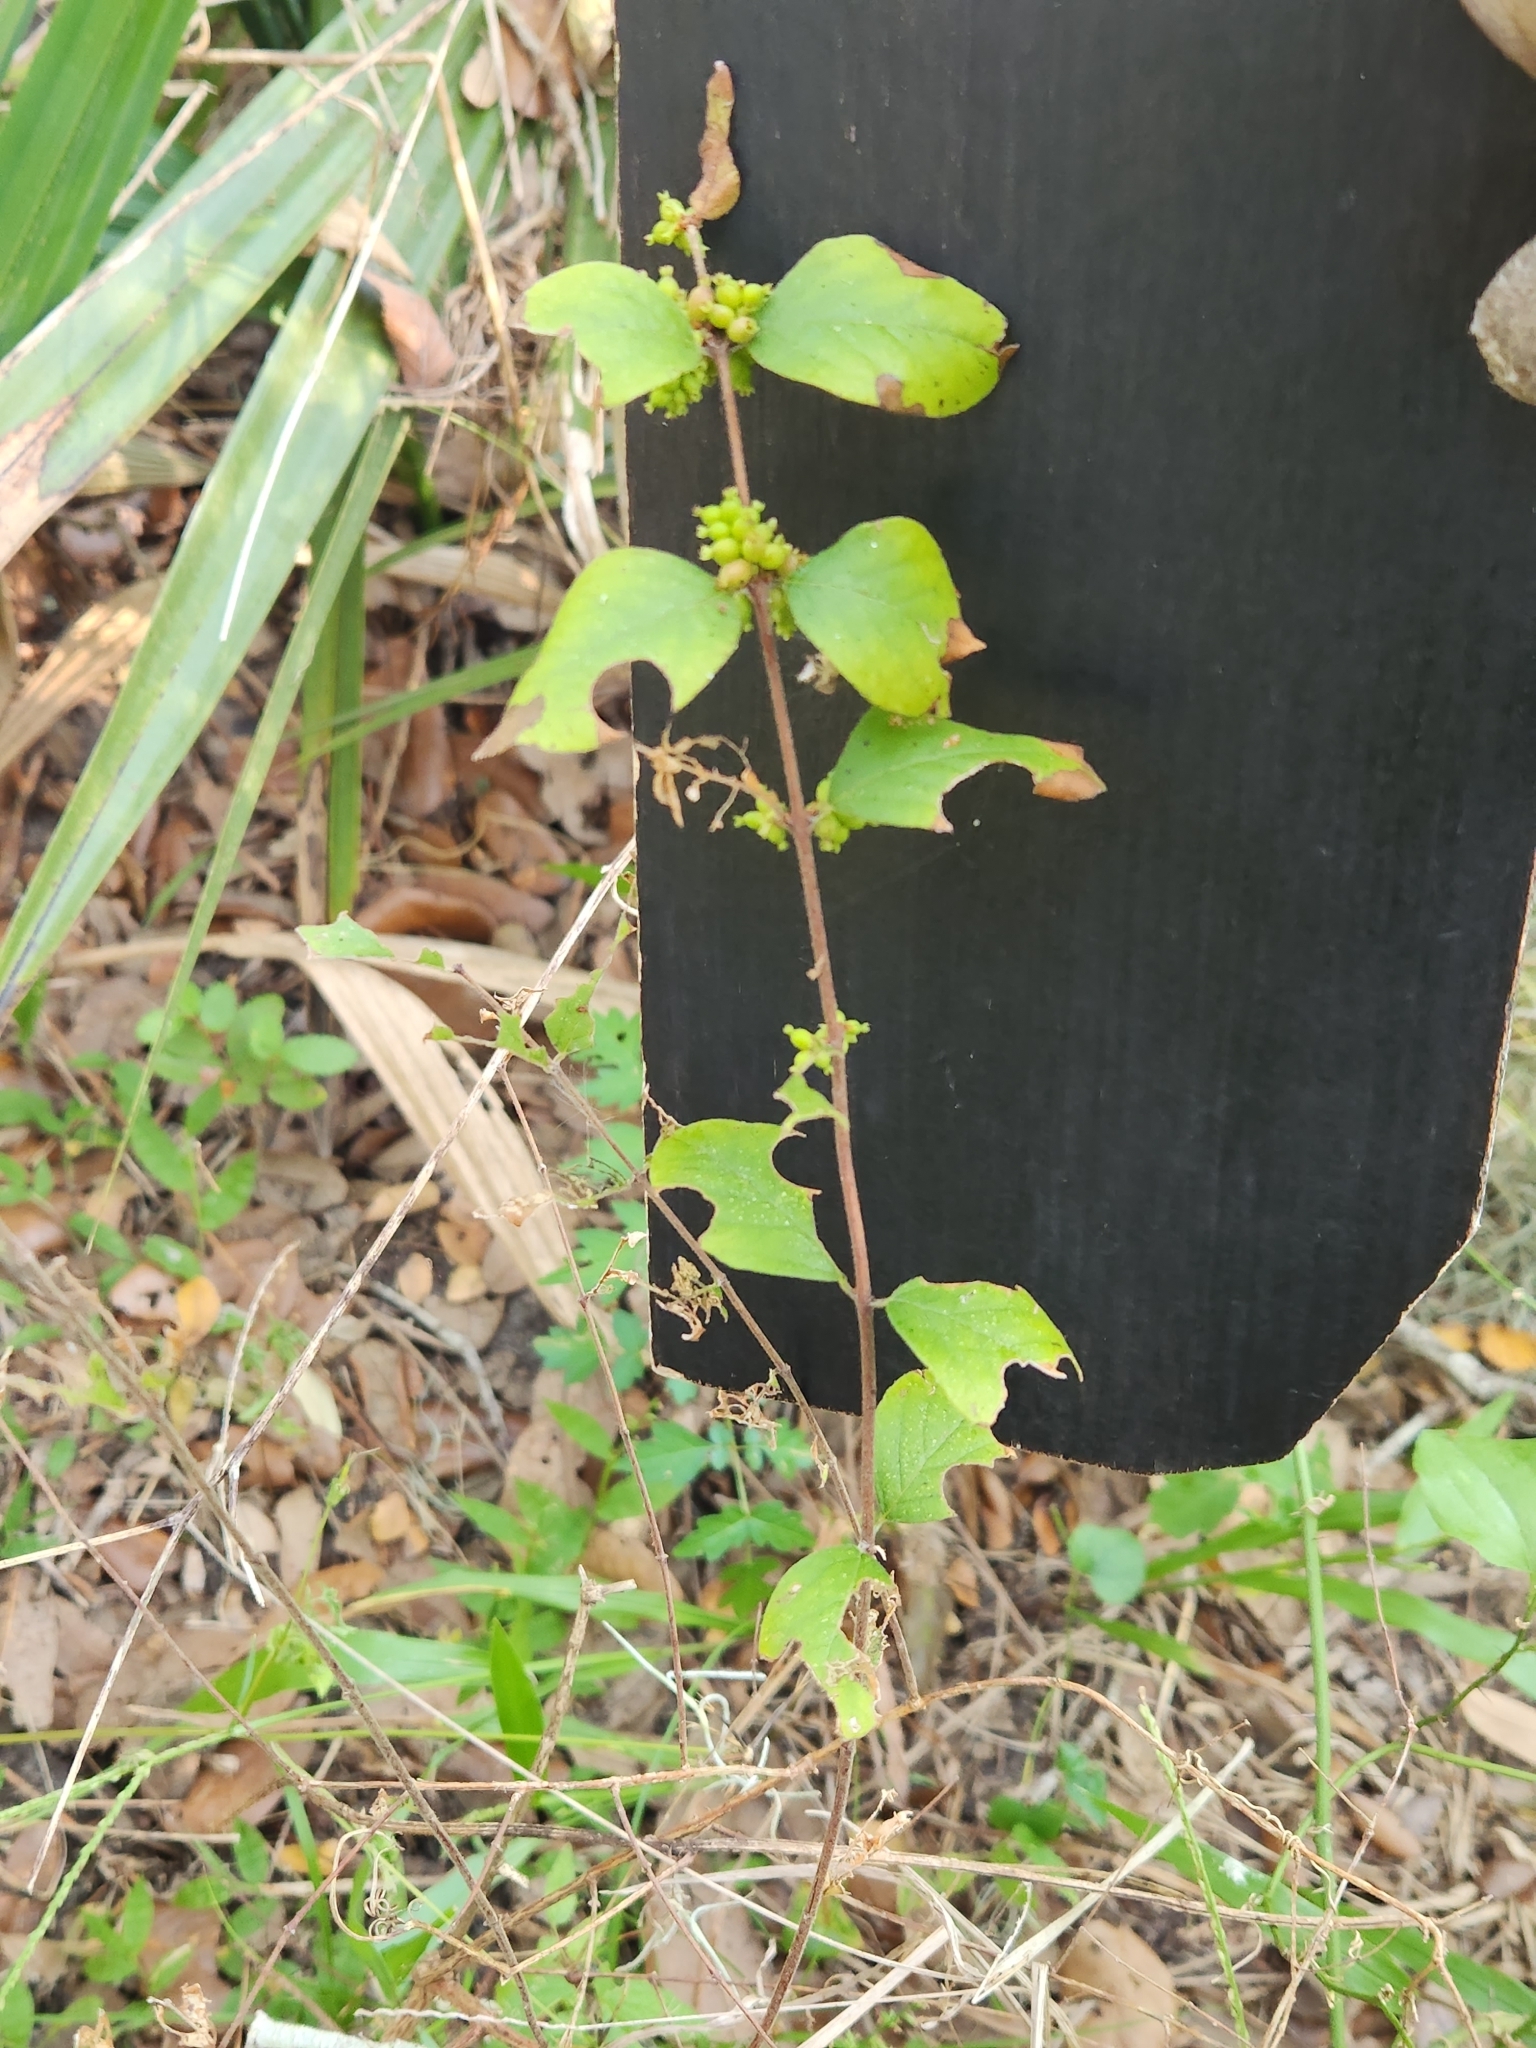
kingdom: Plantae
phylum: Tracheophyta
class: Magnoliopsida
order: Dipsacales
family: Caprifoliaceae
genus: Symphoricarpos
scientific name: Symphoricarpos orbiculatus
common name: Coralberry
